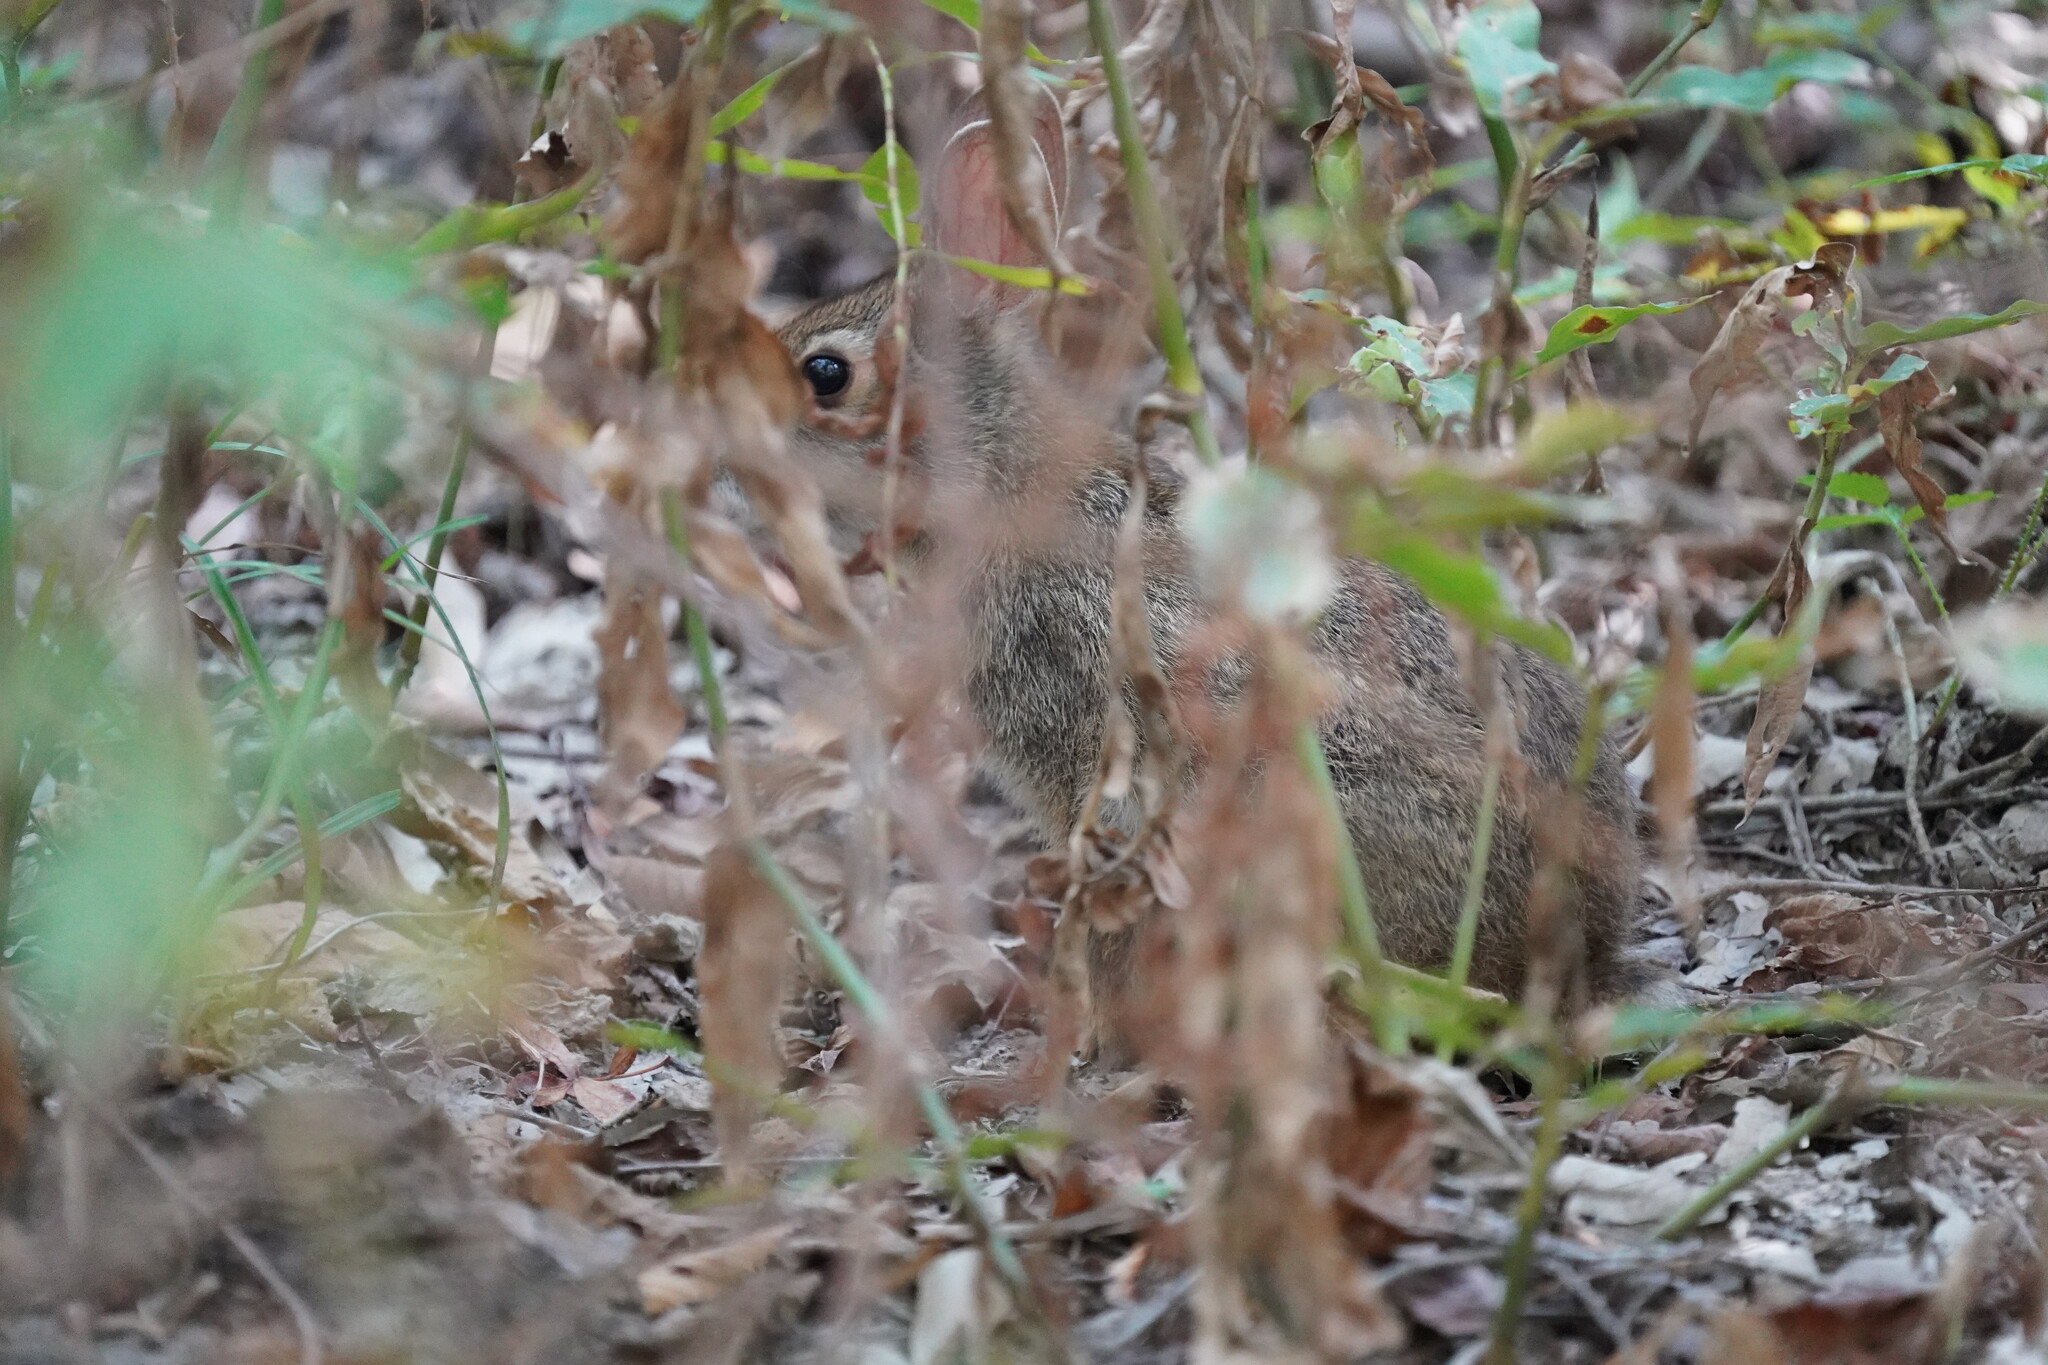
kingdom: Animalia
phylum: Chordata
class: Mammalia
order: Lagomorpha
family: Leporidae
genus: Sylvilagus
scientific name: Sylvilagus aquaticus
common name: Swamp rabbit
